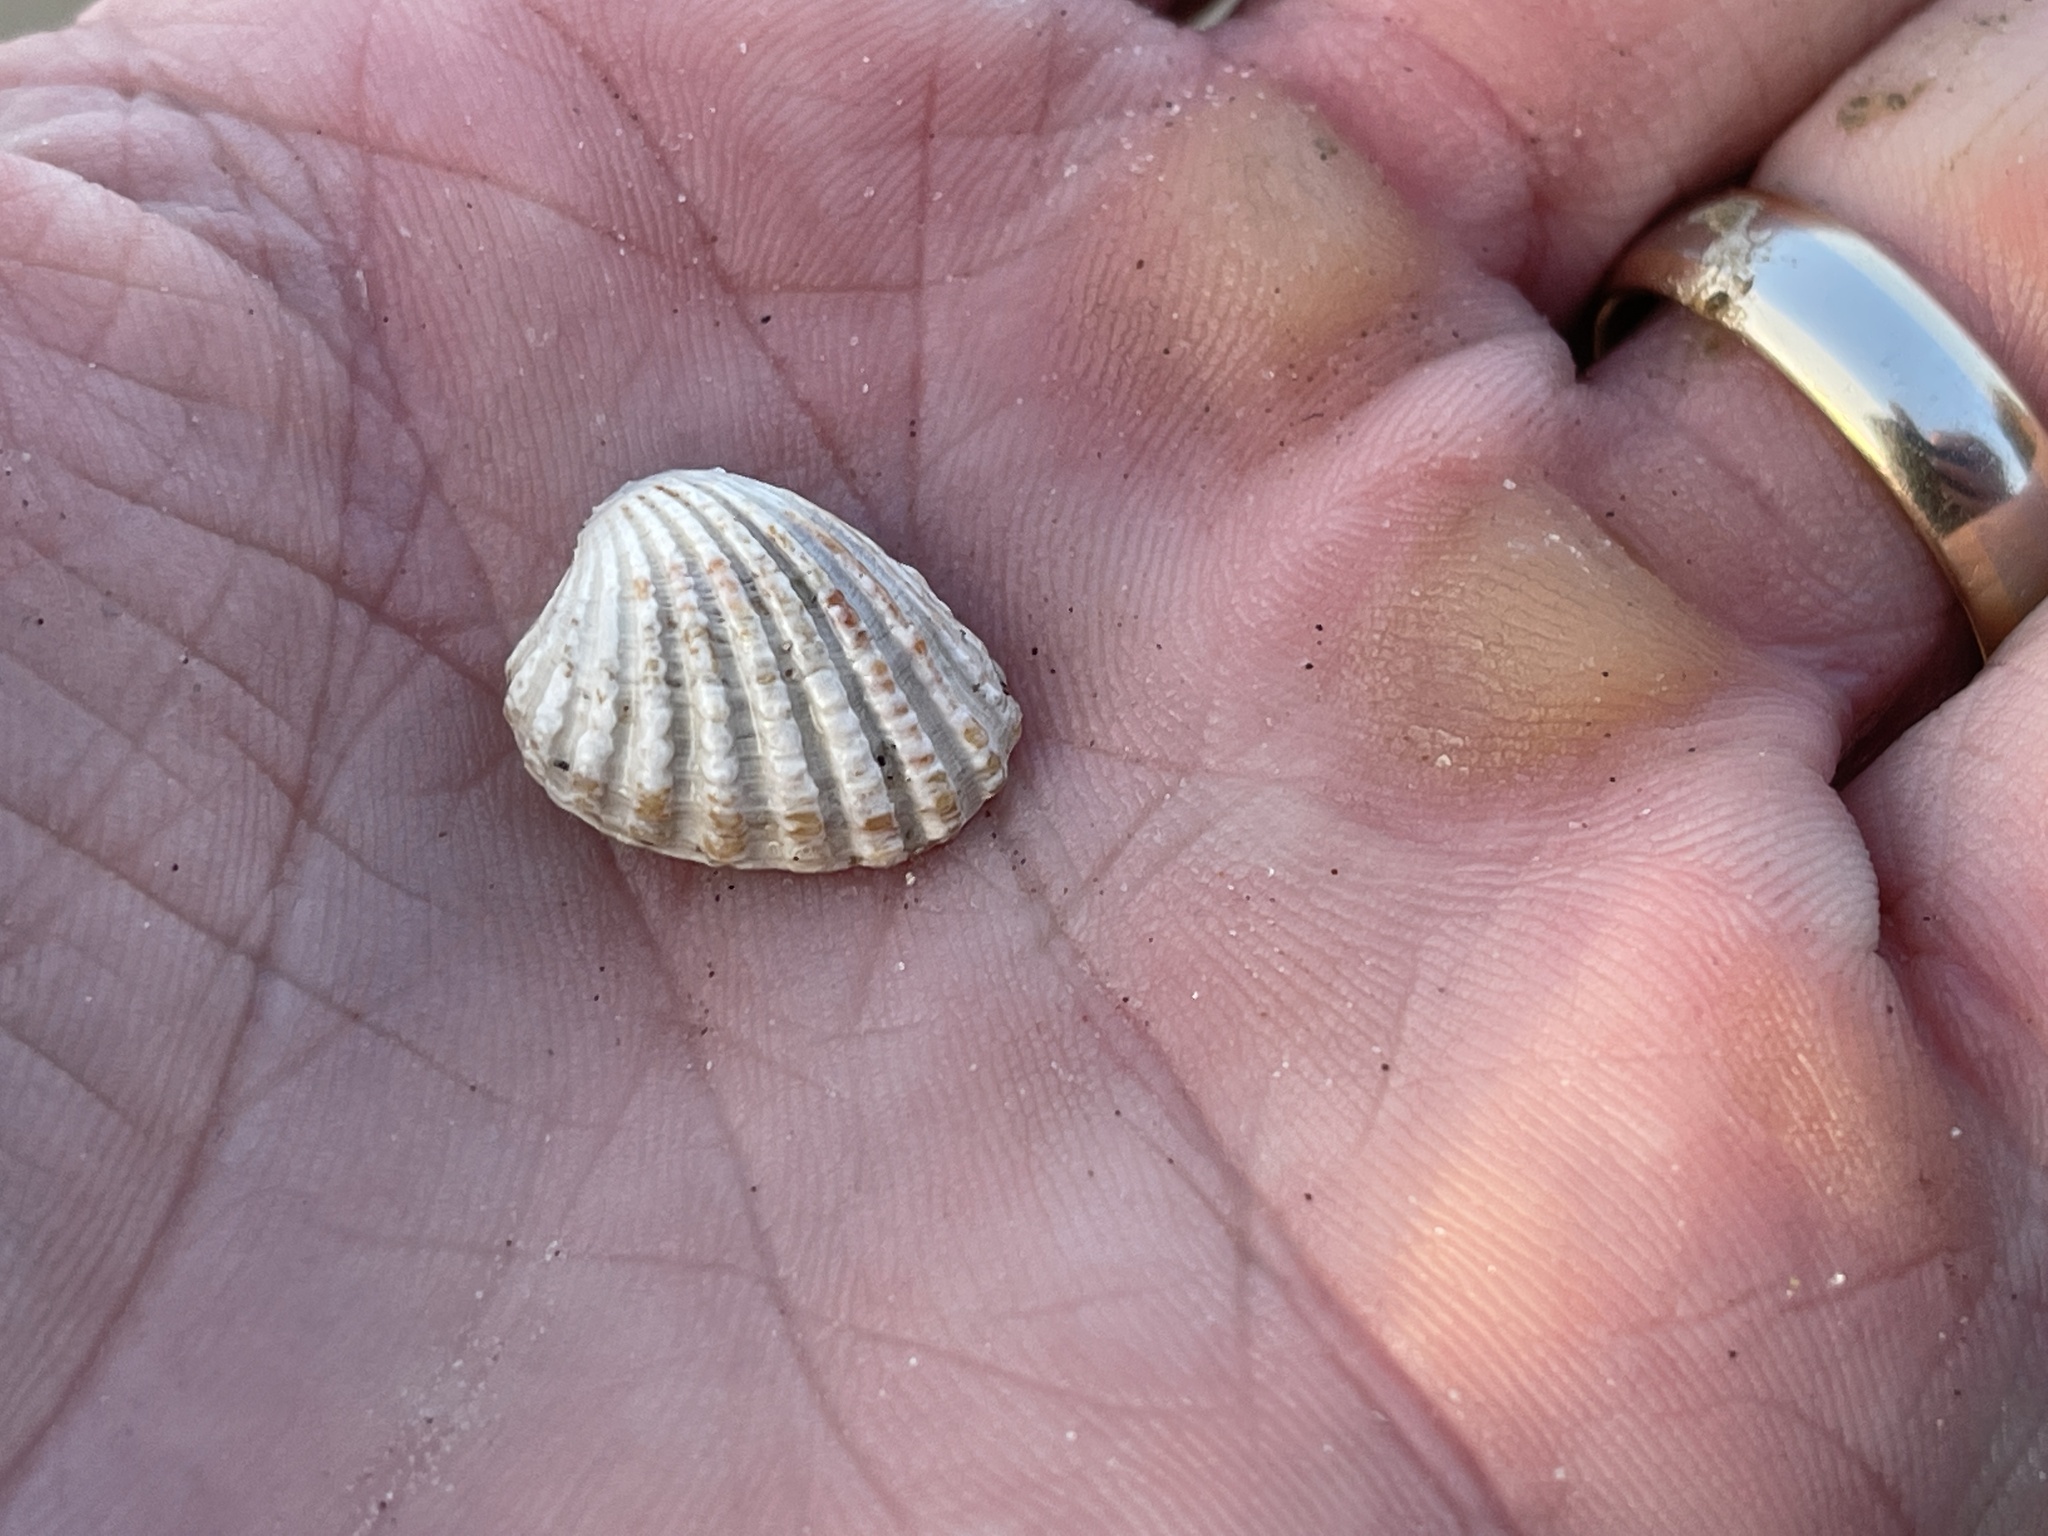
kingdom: Animalia
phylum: Mollusca
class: Bivalvia
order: Carditida
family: Carditidae
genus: Cardites
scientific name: Cardites floridanus
